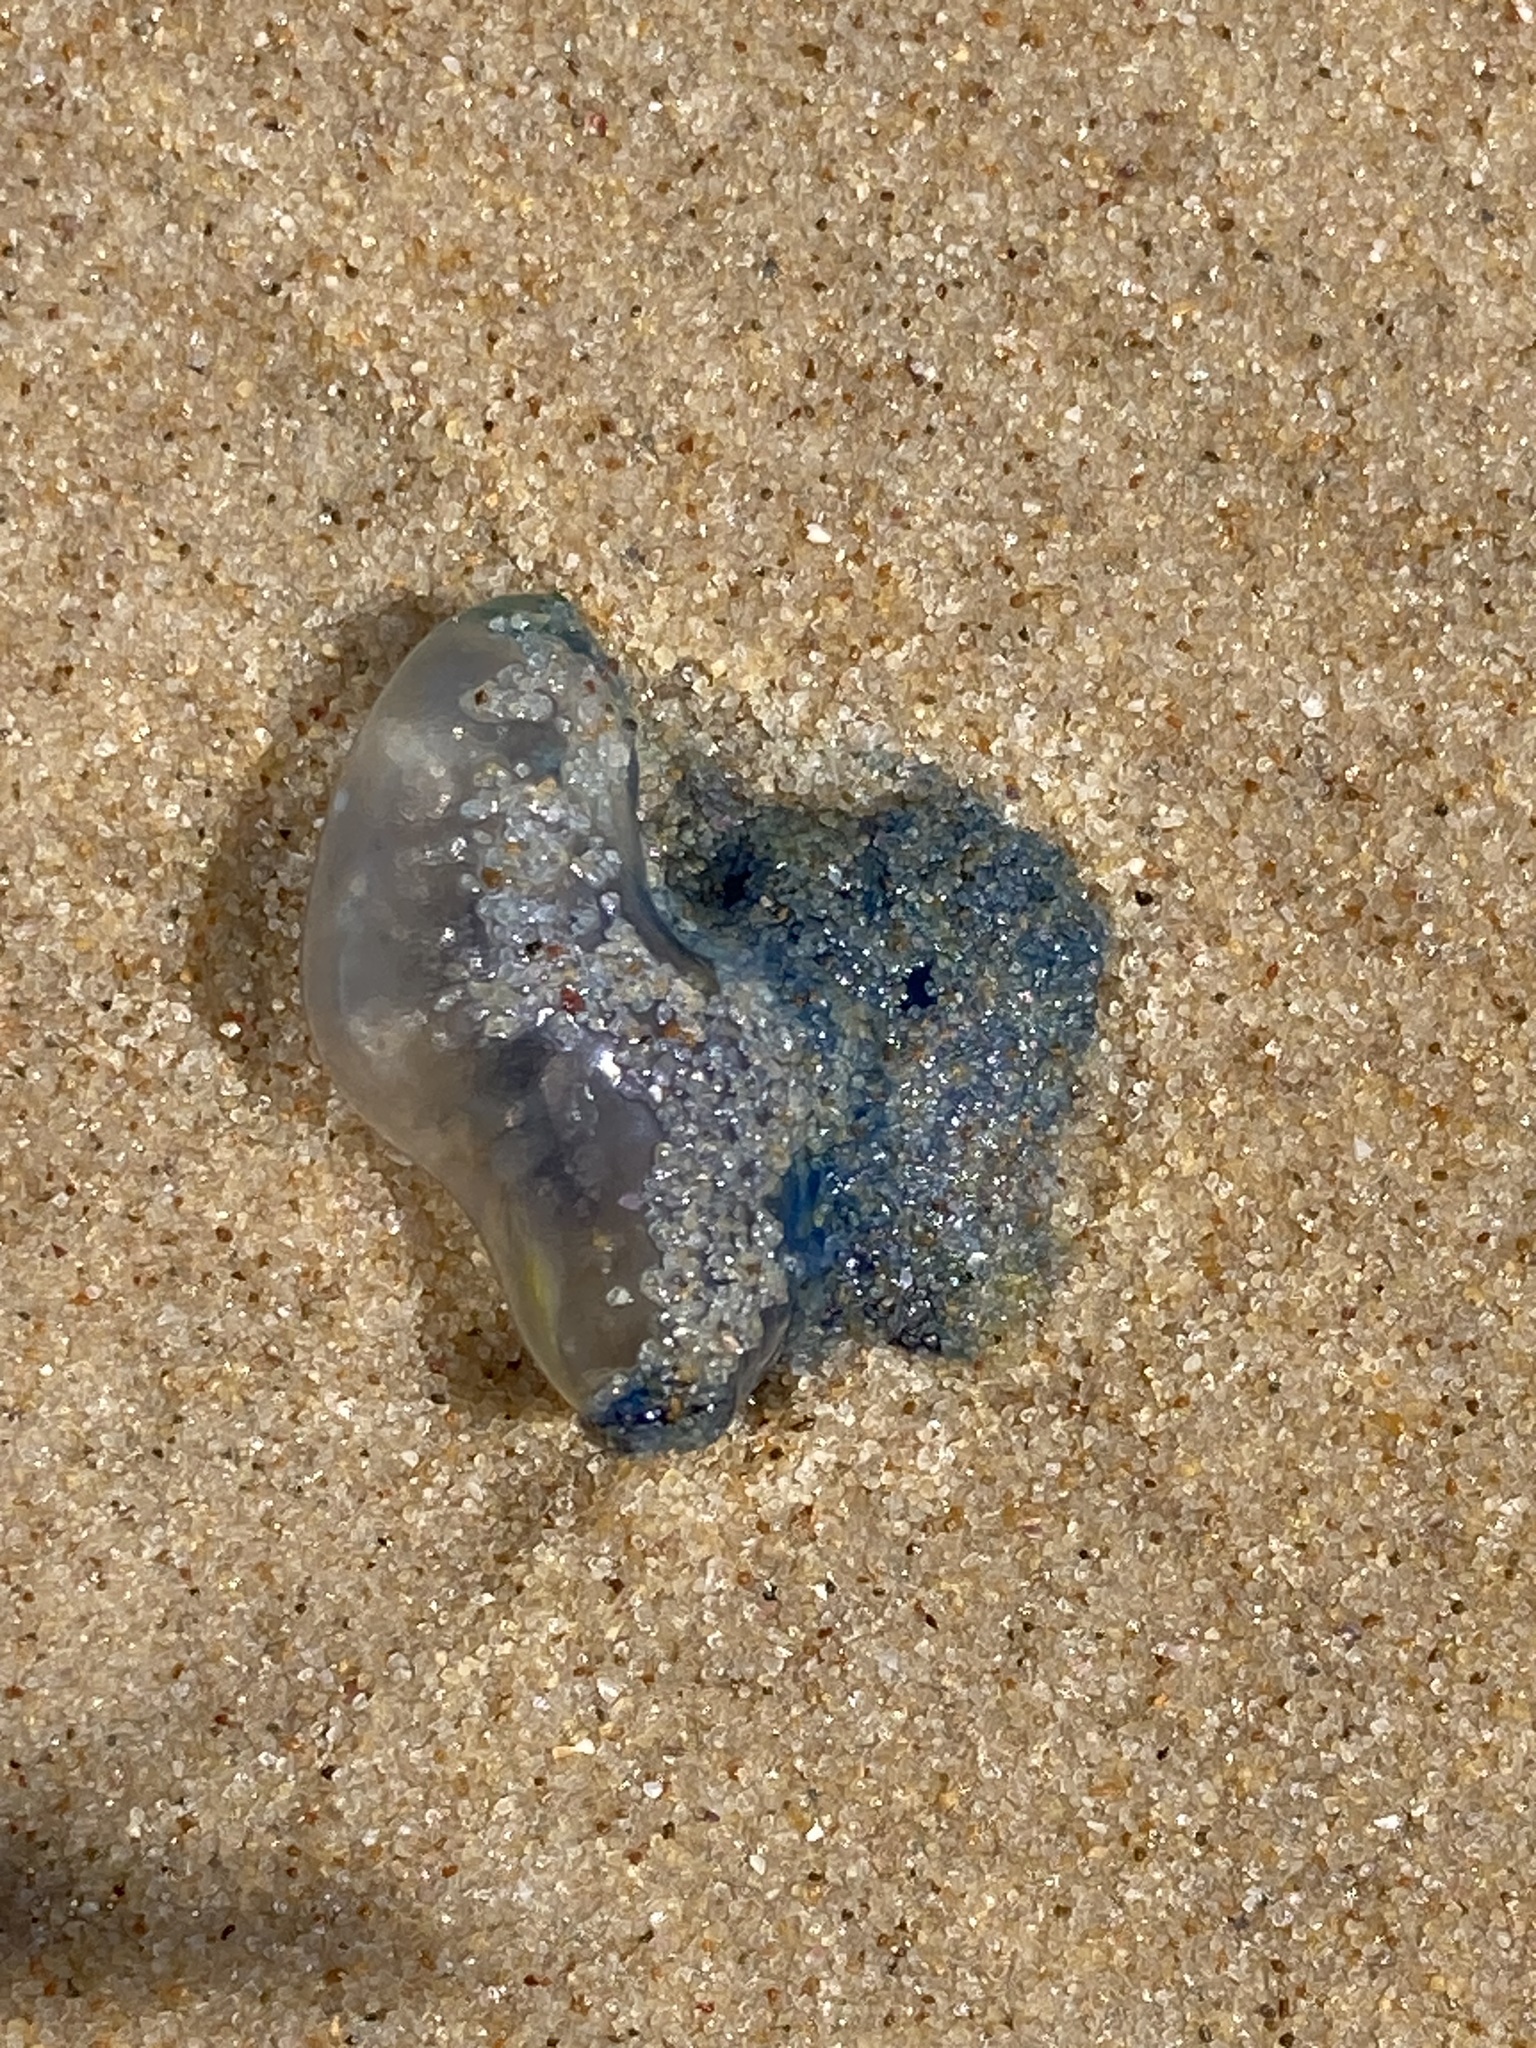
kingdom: Animalia
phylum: Cnidaria
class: Hydrozoa
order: Siphonophorae
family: Physaliidae
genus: Physalia
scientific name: Physalia physalis
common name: Portuguese man-of-war
